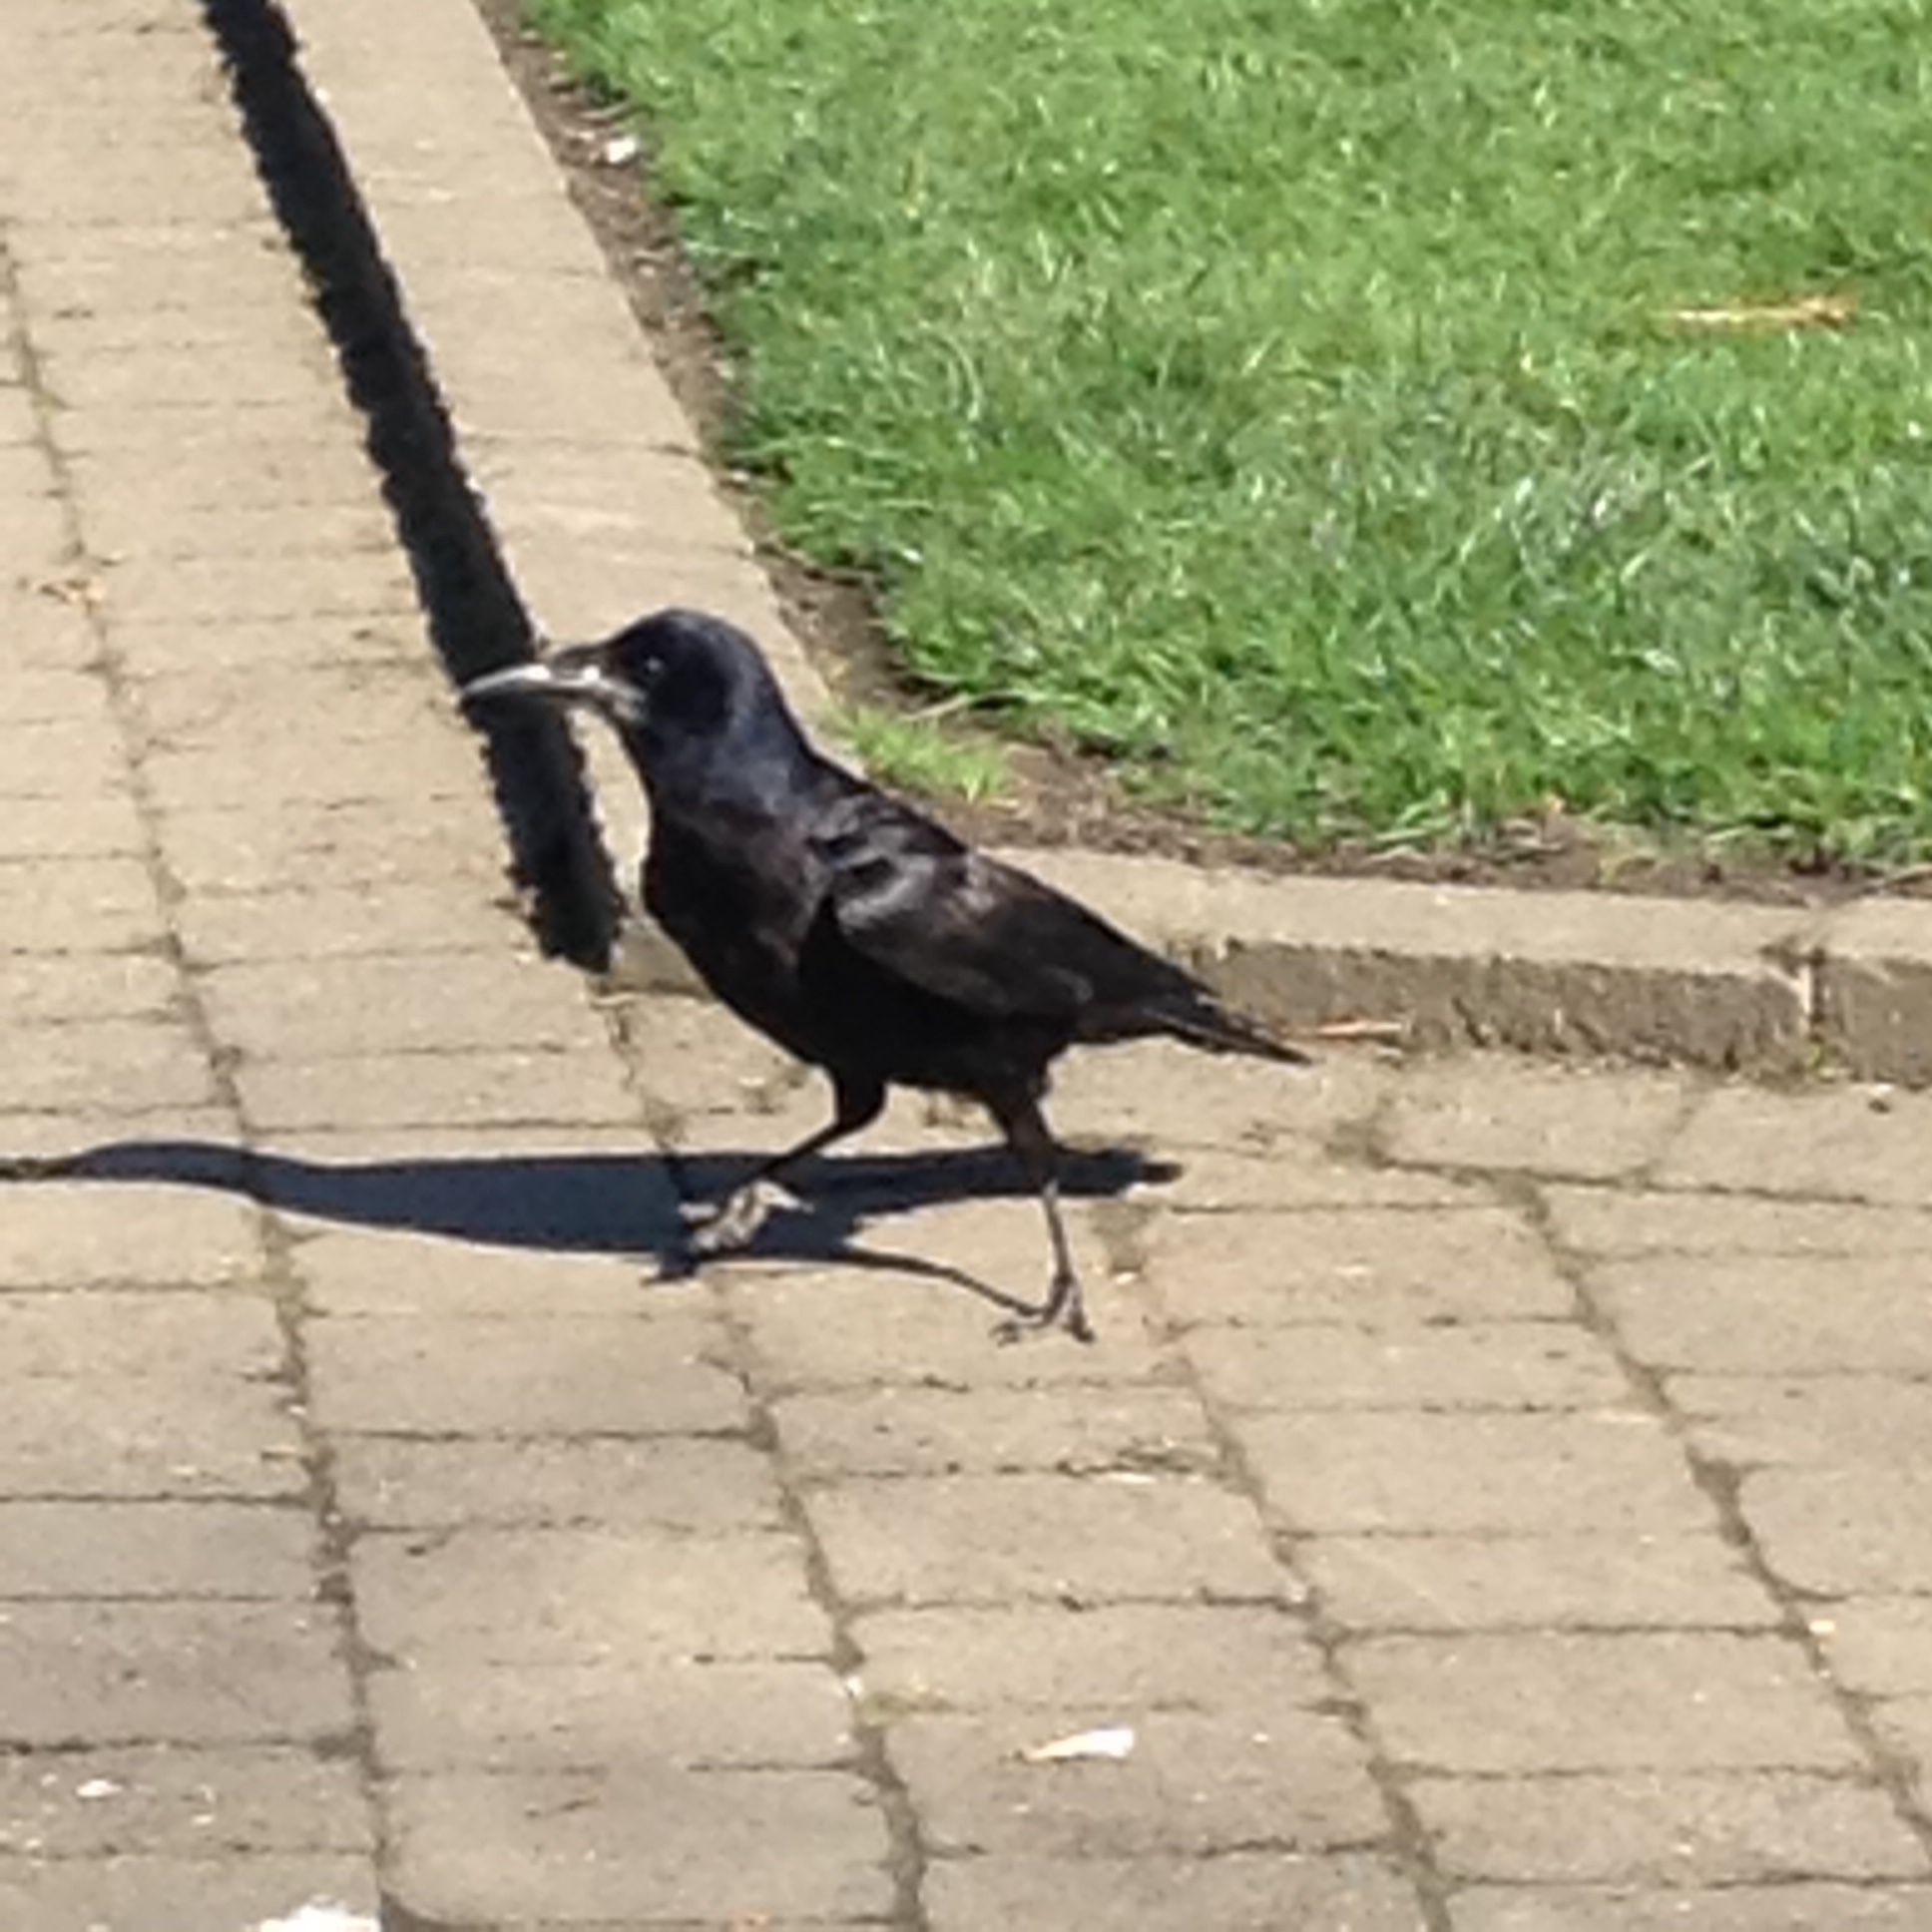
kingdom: Animalia
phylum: Chordata
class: Aves
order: Passeriformes
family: Corvidae
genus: Corvus
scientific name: Corvus frugilegus
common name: Rook
